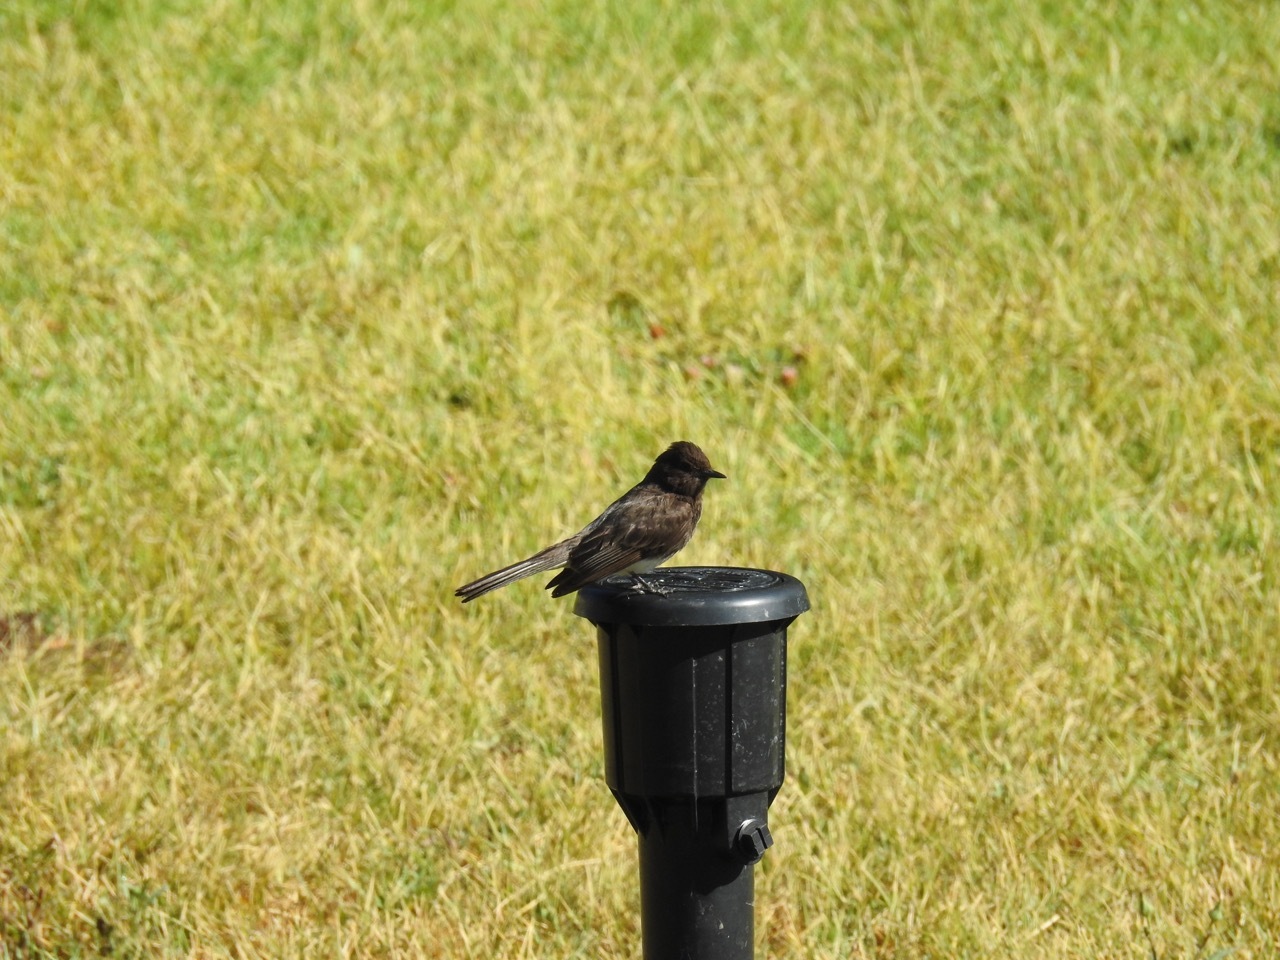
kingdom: Animalia
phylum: Chordata
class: Aves
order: Passeriformes
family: Tyrannidae
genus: Sayornis
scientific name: Sayornis nigricans
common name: Black phoebe
